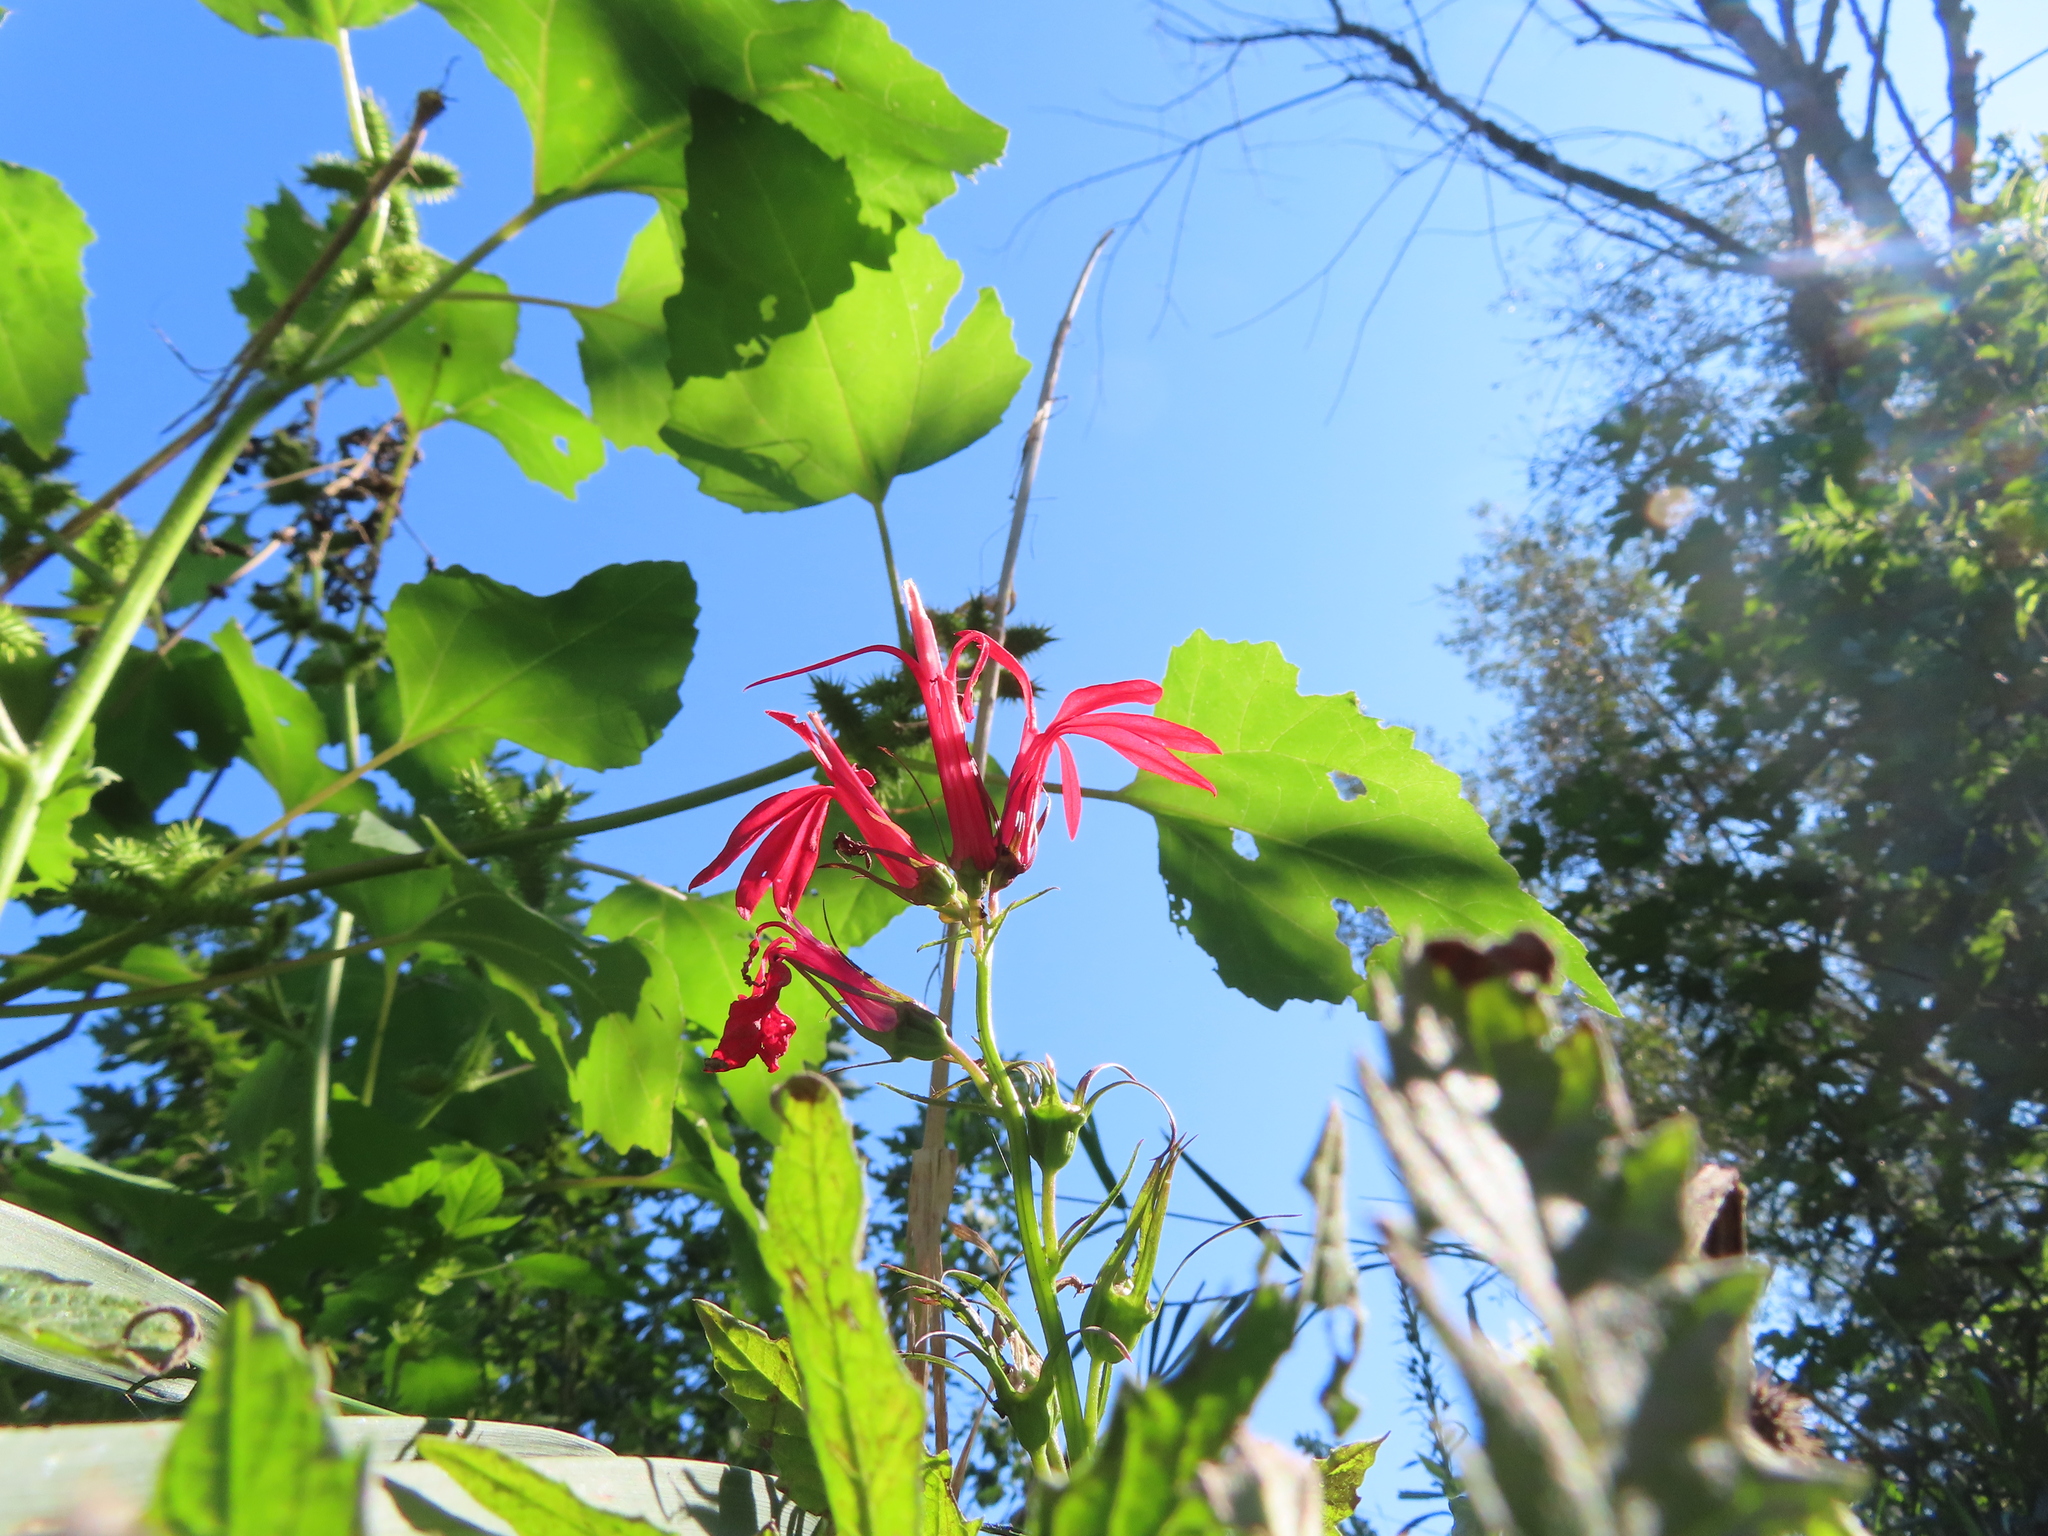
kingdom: Plantae
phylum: Tracheophyta
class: Magnoliopsida
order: Asterales
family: Campanulaceae
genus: Lobelia
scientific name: Lobelia cardinalis
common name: Cardinal flower
